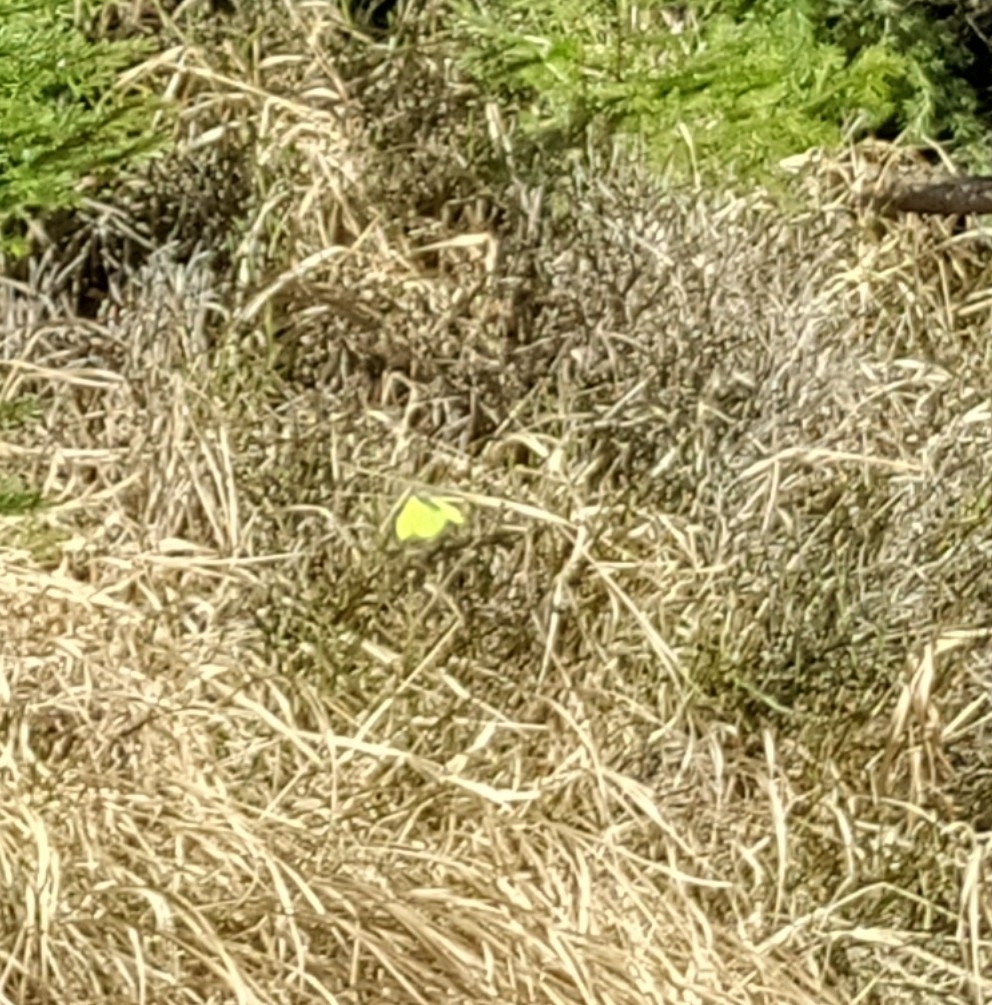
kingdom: Animalia
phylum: Arthropoda
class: Insecta
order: Lepidoptera
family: Pieridae
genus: Gonepteryx
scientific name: Gonepteryx rhamni
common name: Brimstone
